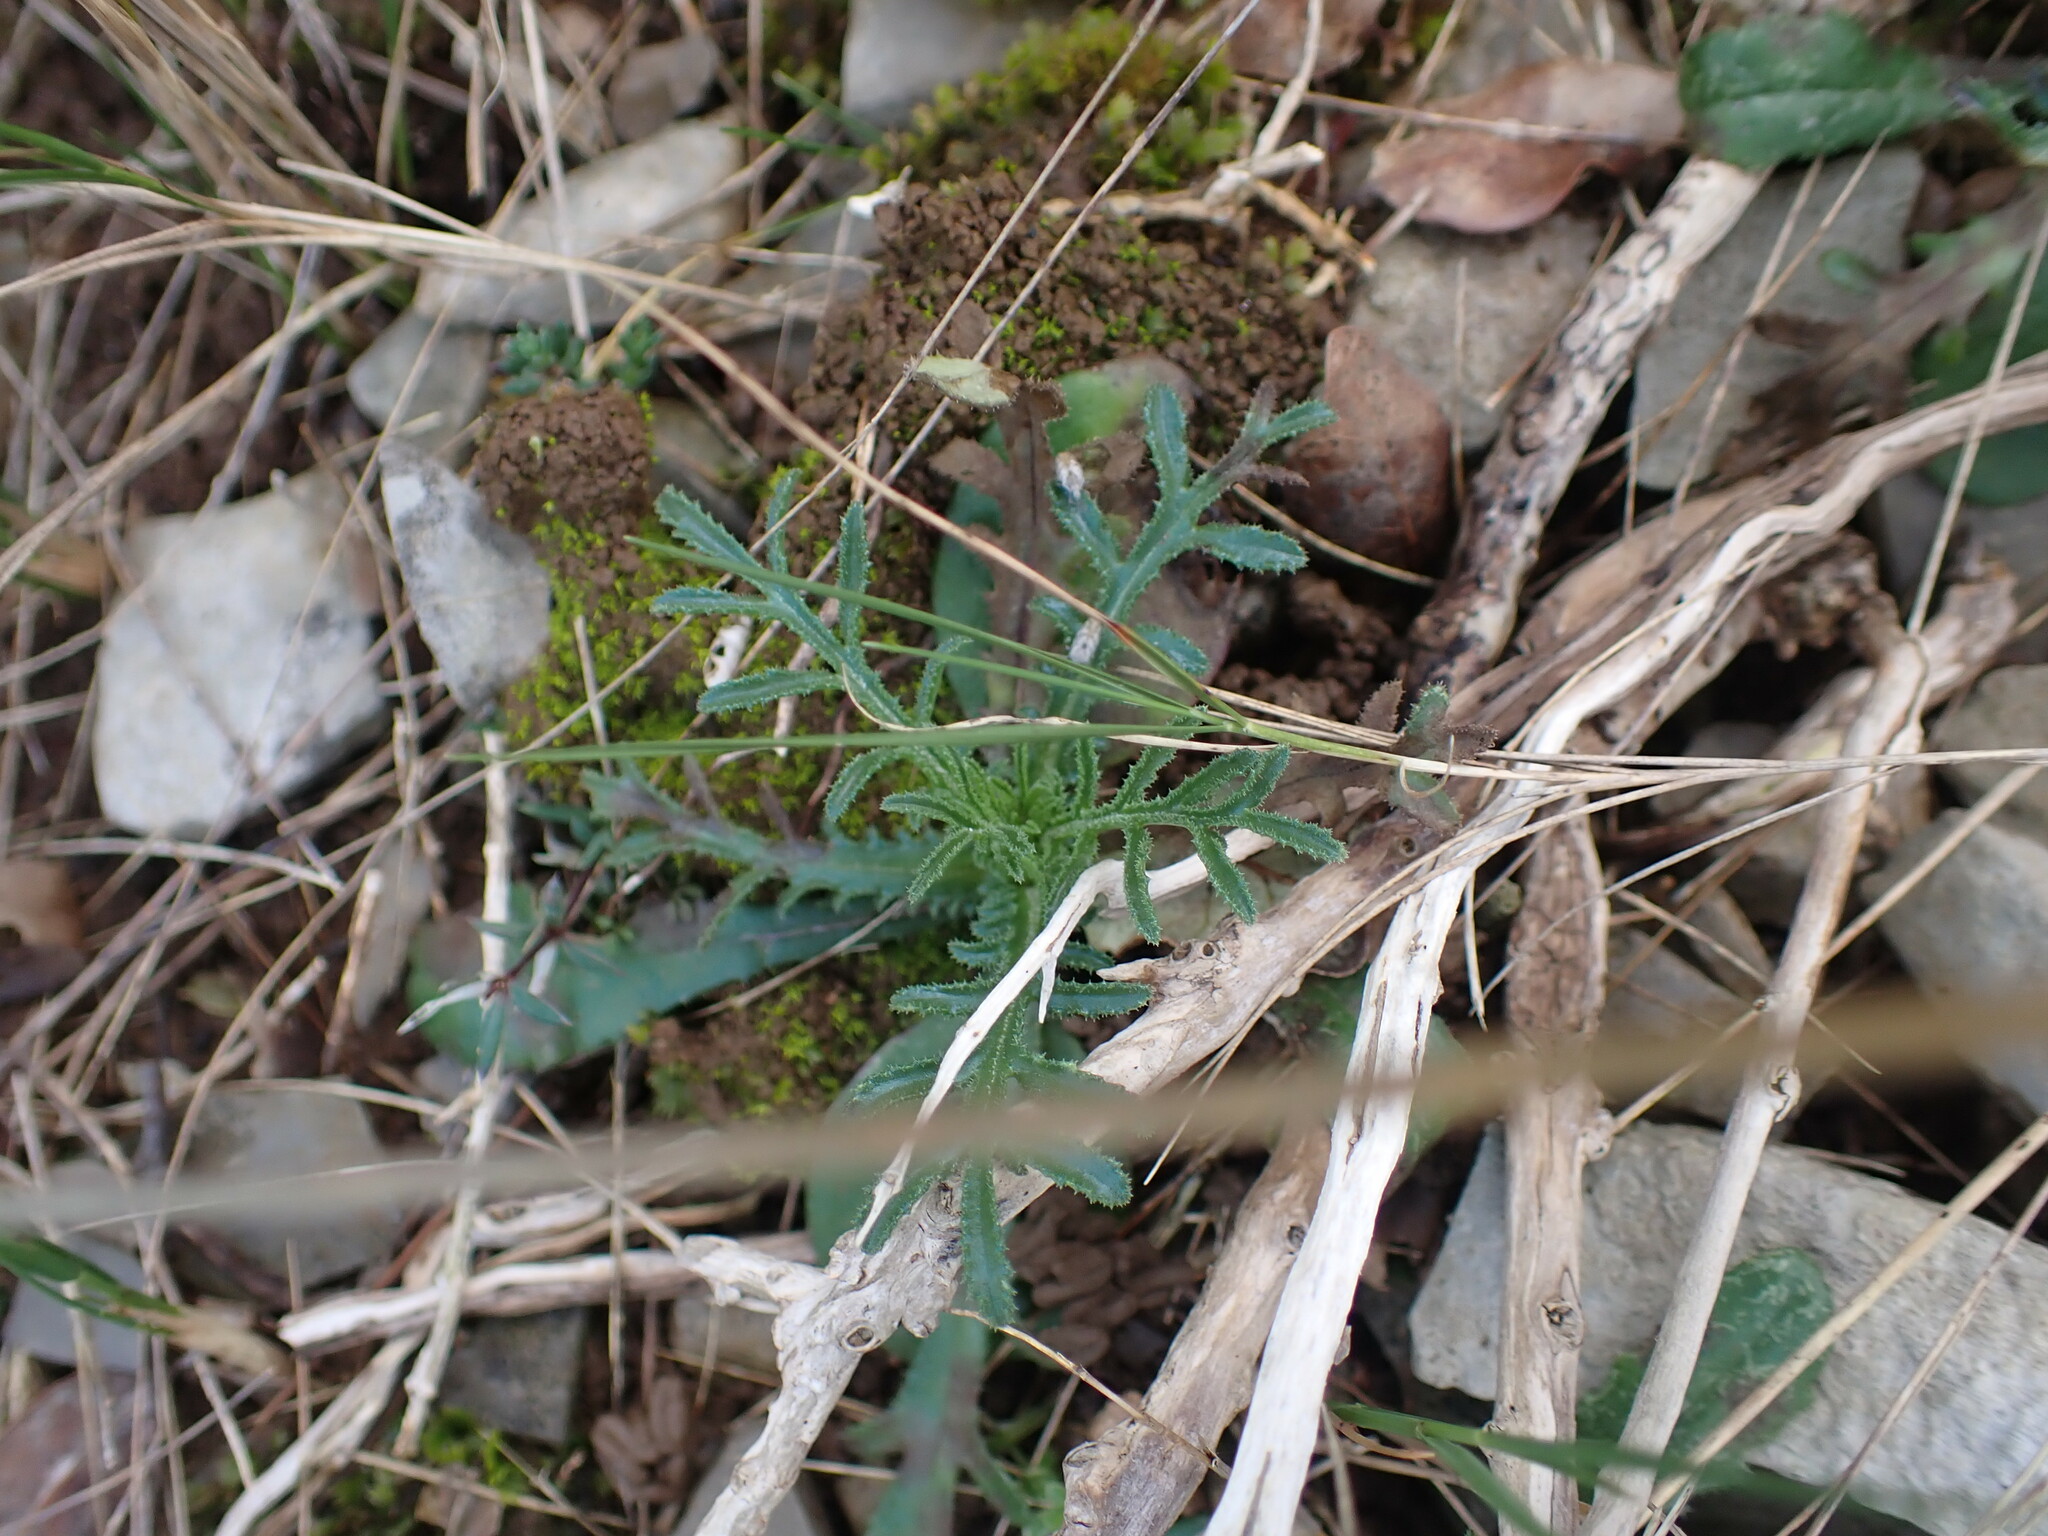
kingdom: Plantae
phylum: Tracheophyta
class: Magnoliopsida
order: Asterales
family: Asteraceae
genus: Crupina
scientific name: Crupina vulgaris
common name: Common crupina
